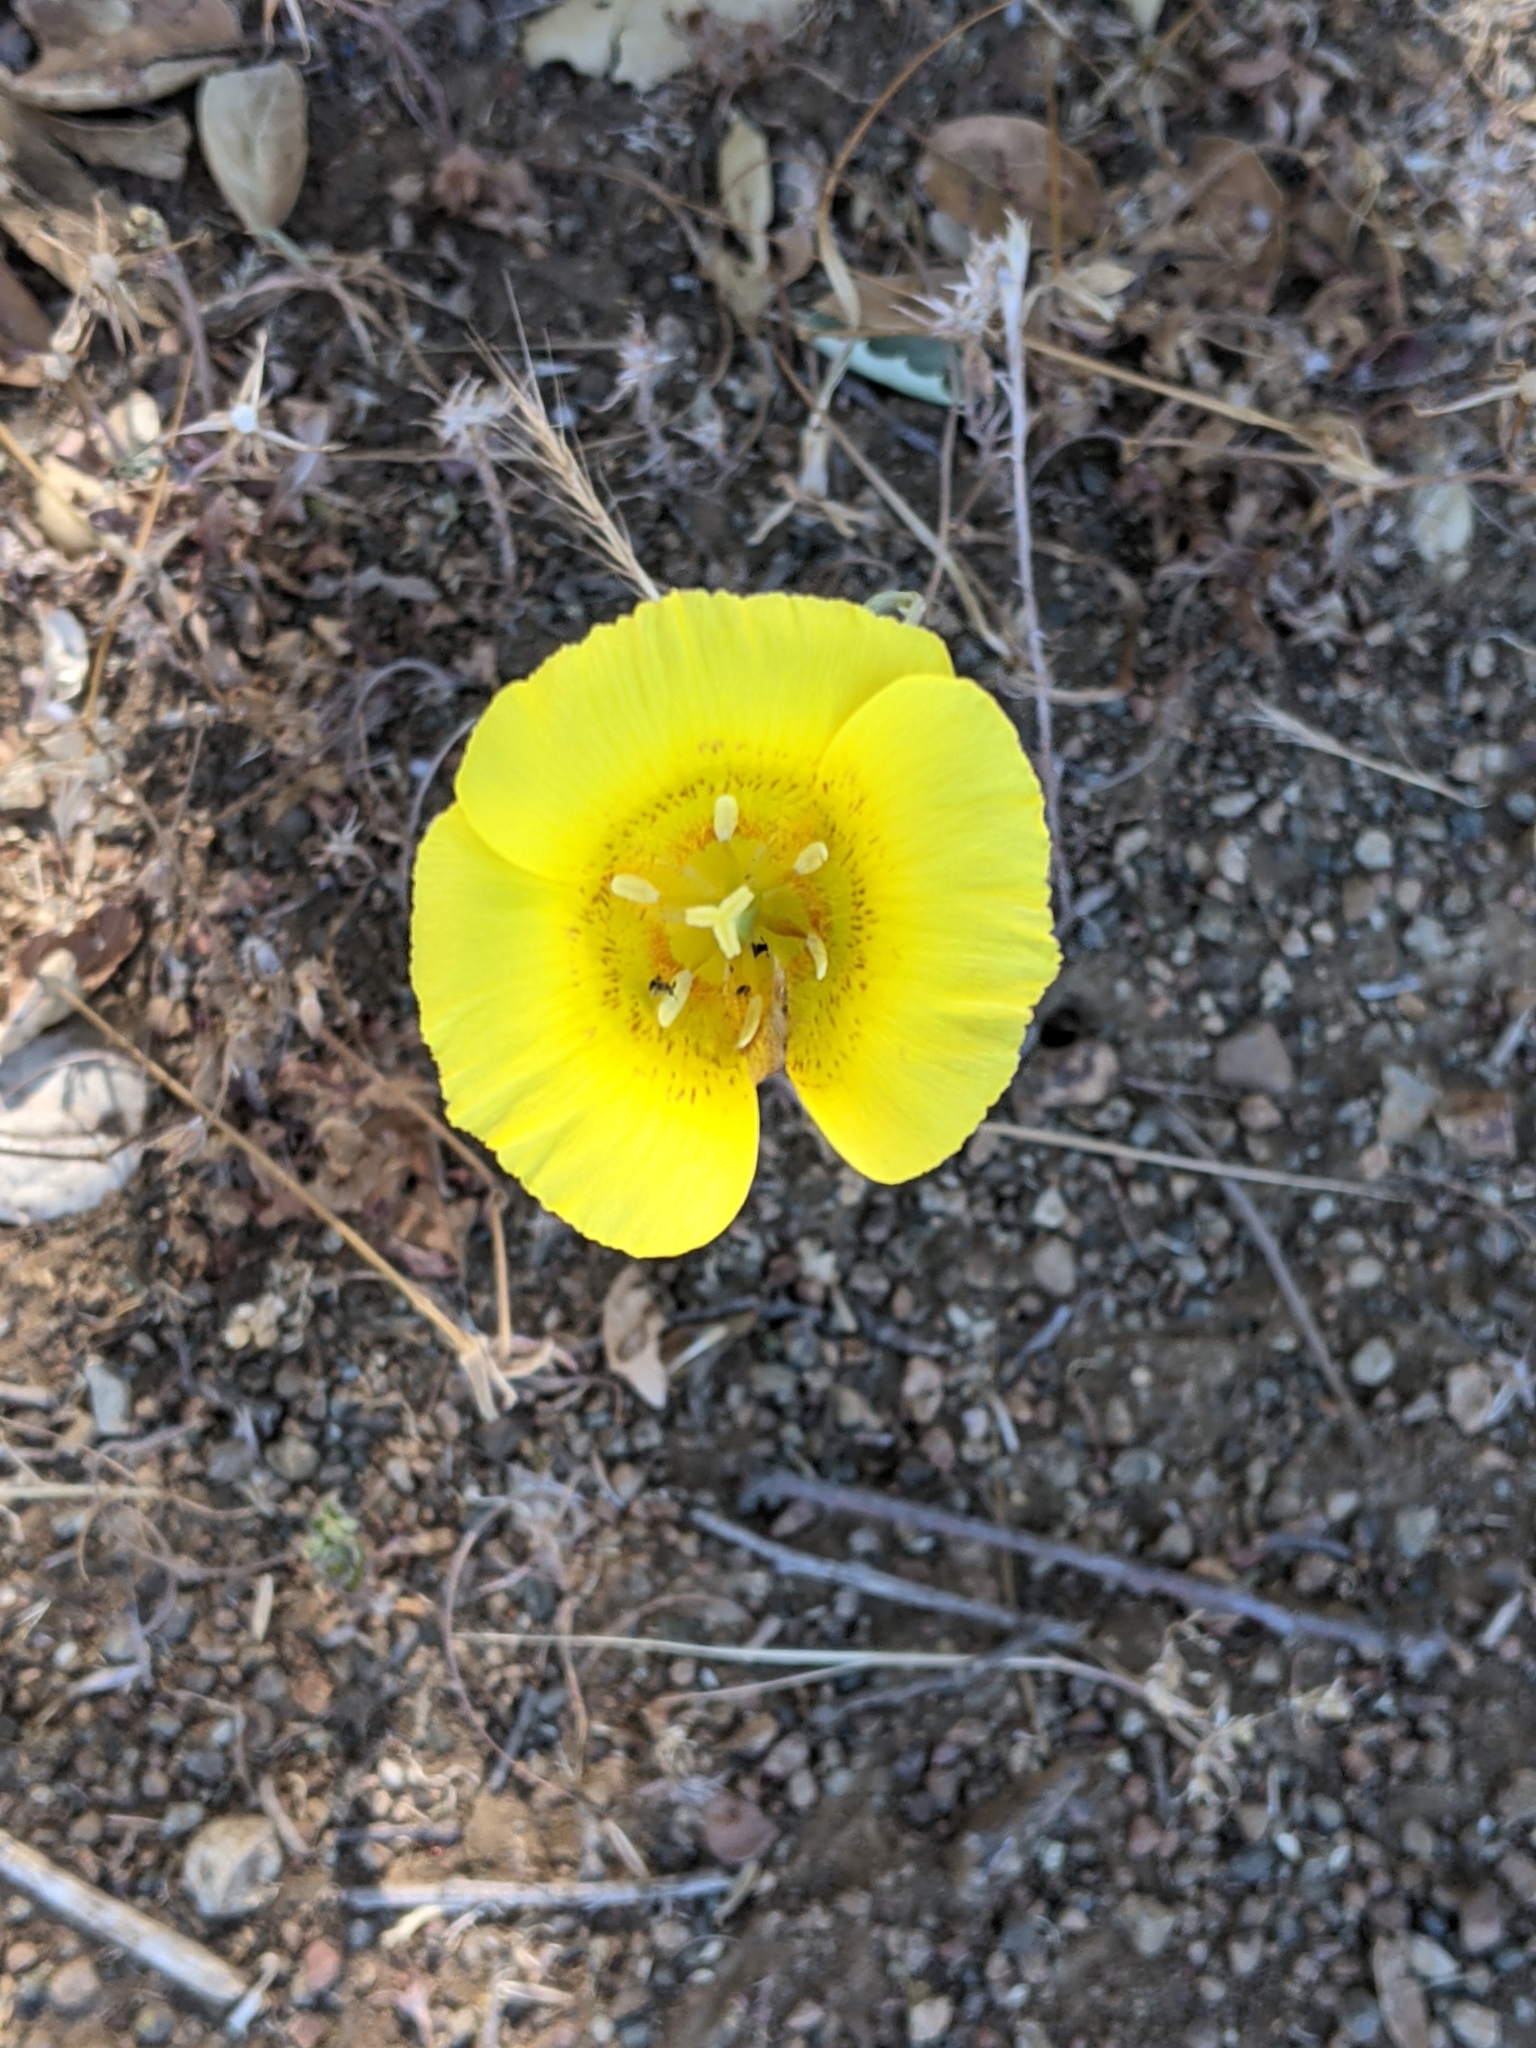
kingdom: Plantae
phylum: Tracheophyta
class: Liliopsida
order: Liliales
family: Liliaceae
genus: Calochortus
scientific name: Calochortus luteus
